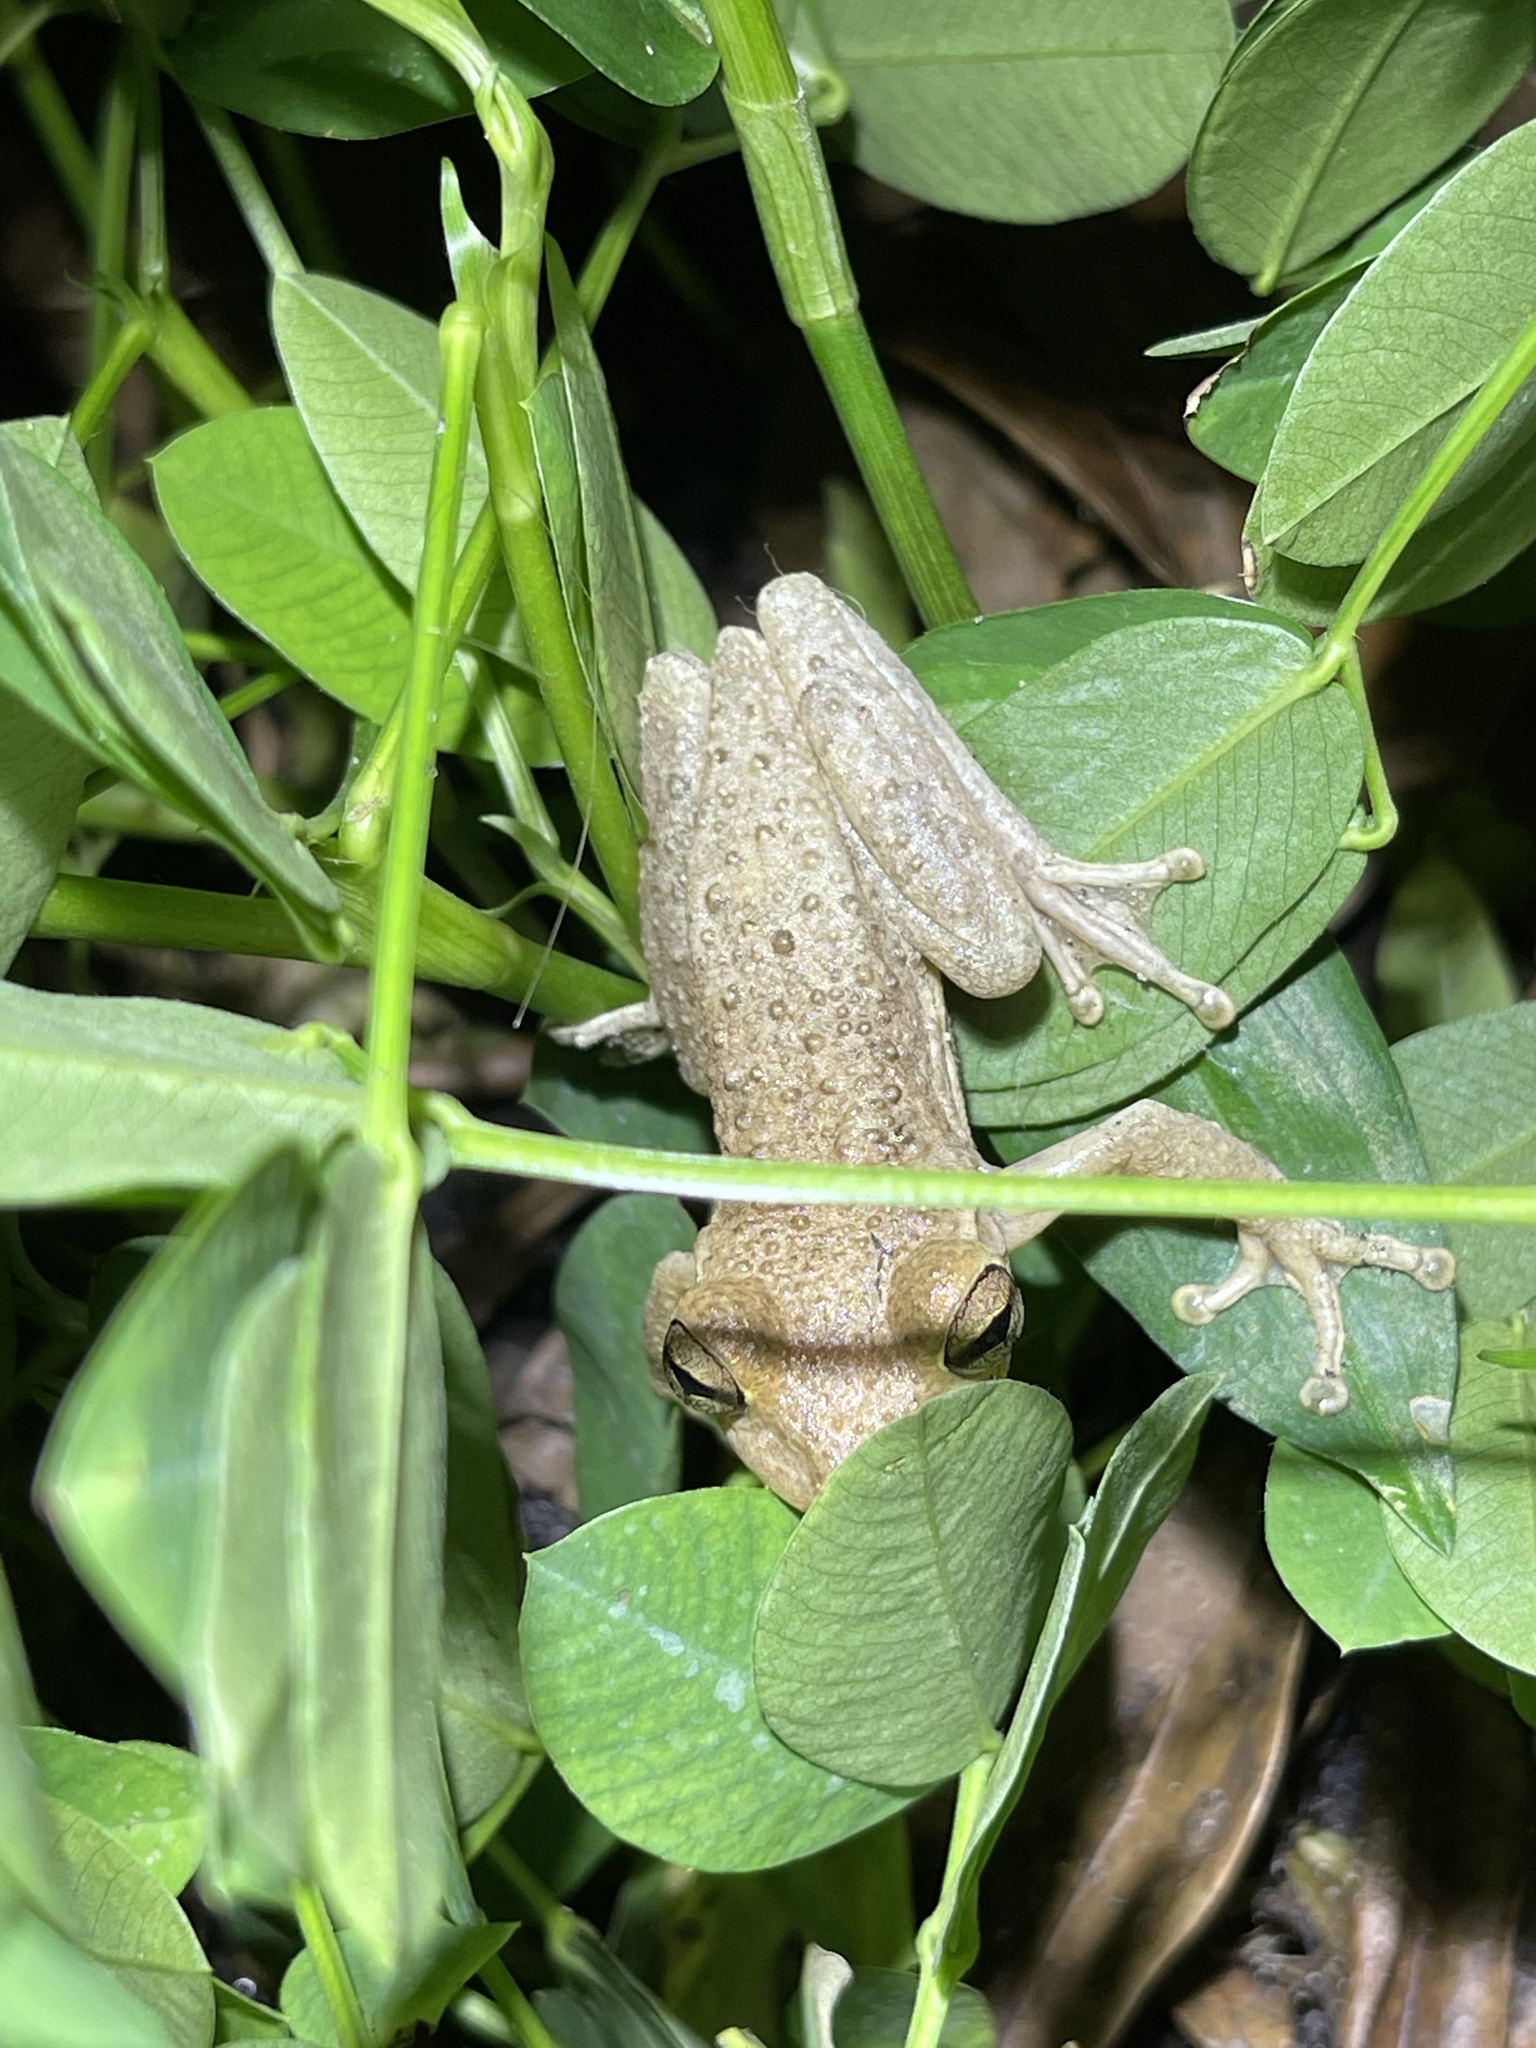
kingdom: Animalia
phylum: Chordata
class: Amphibia
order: Anura
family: Hylidae
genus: Osteopilus
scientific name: Osteopilus septentrionalis
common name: Cuban treefrog
